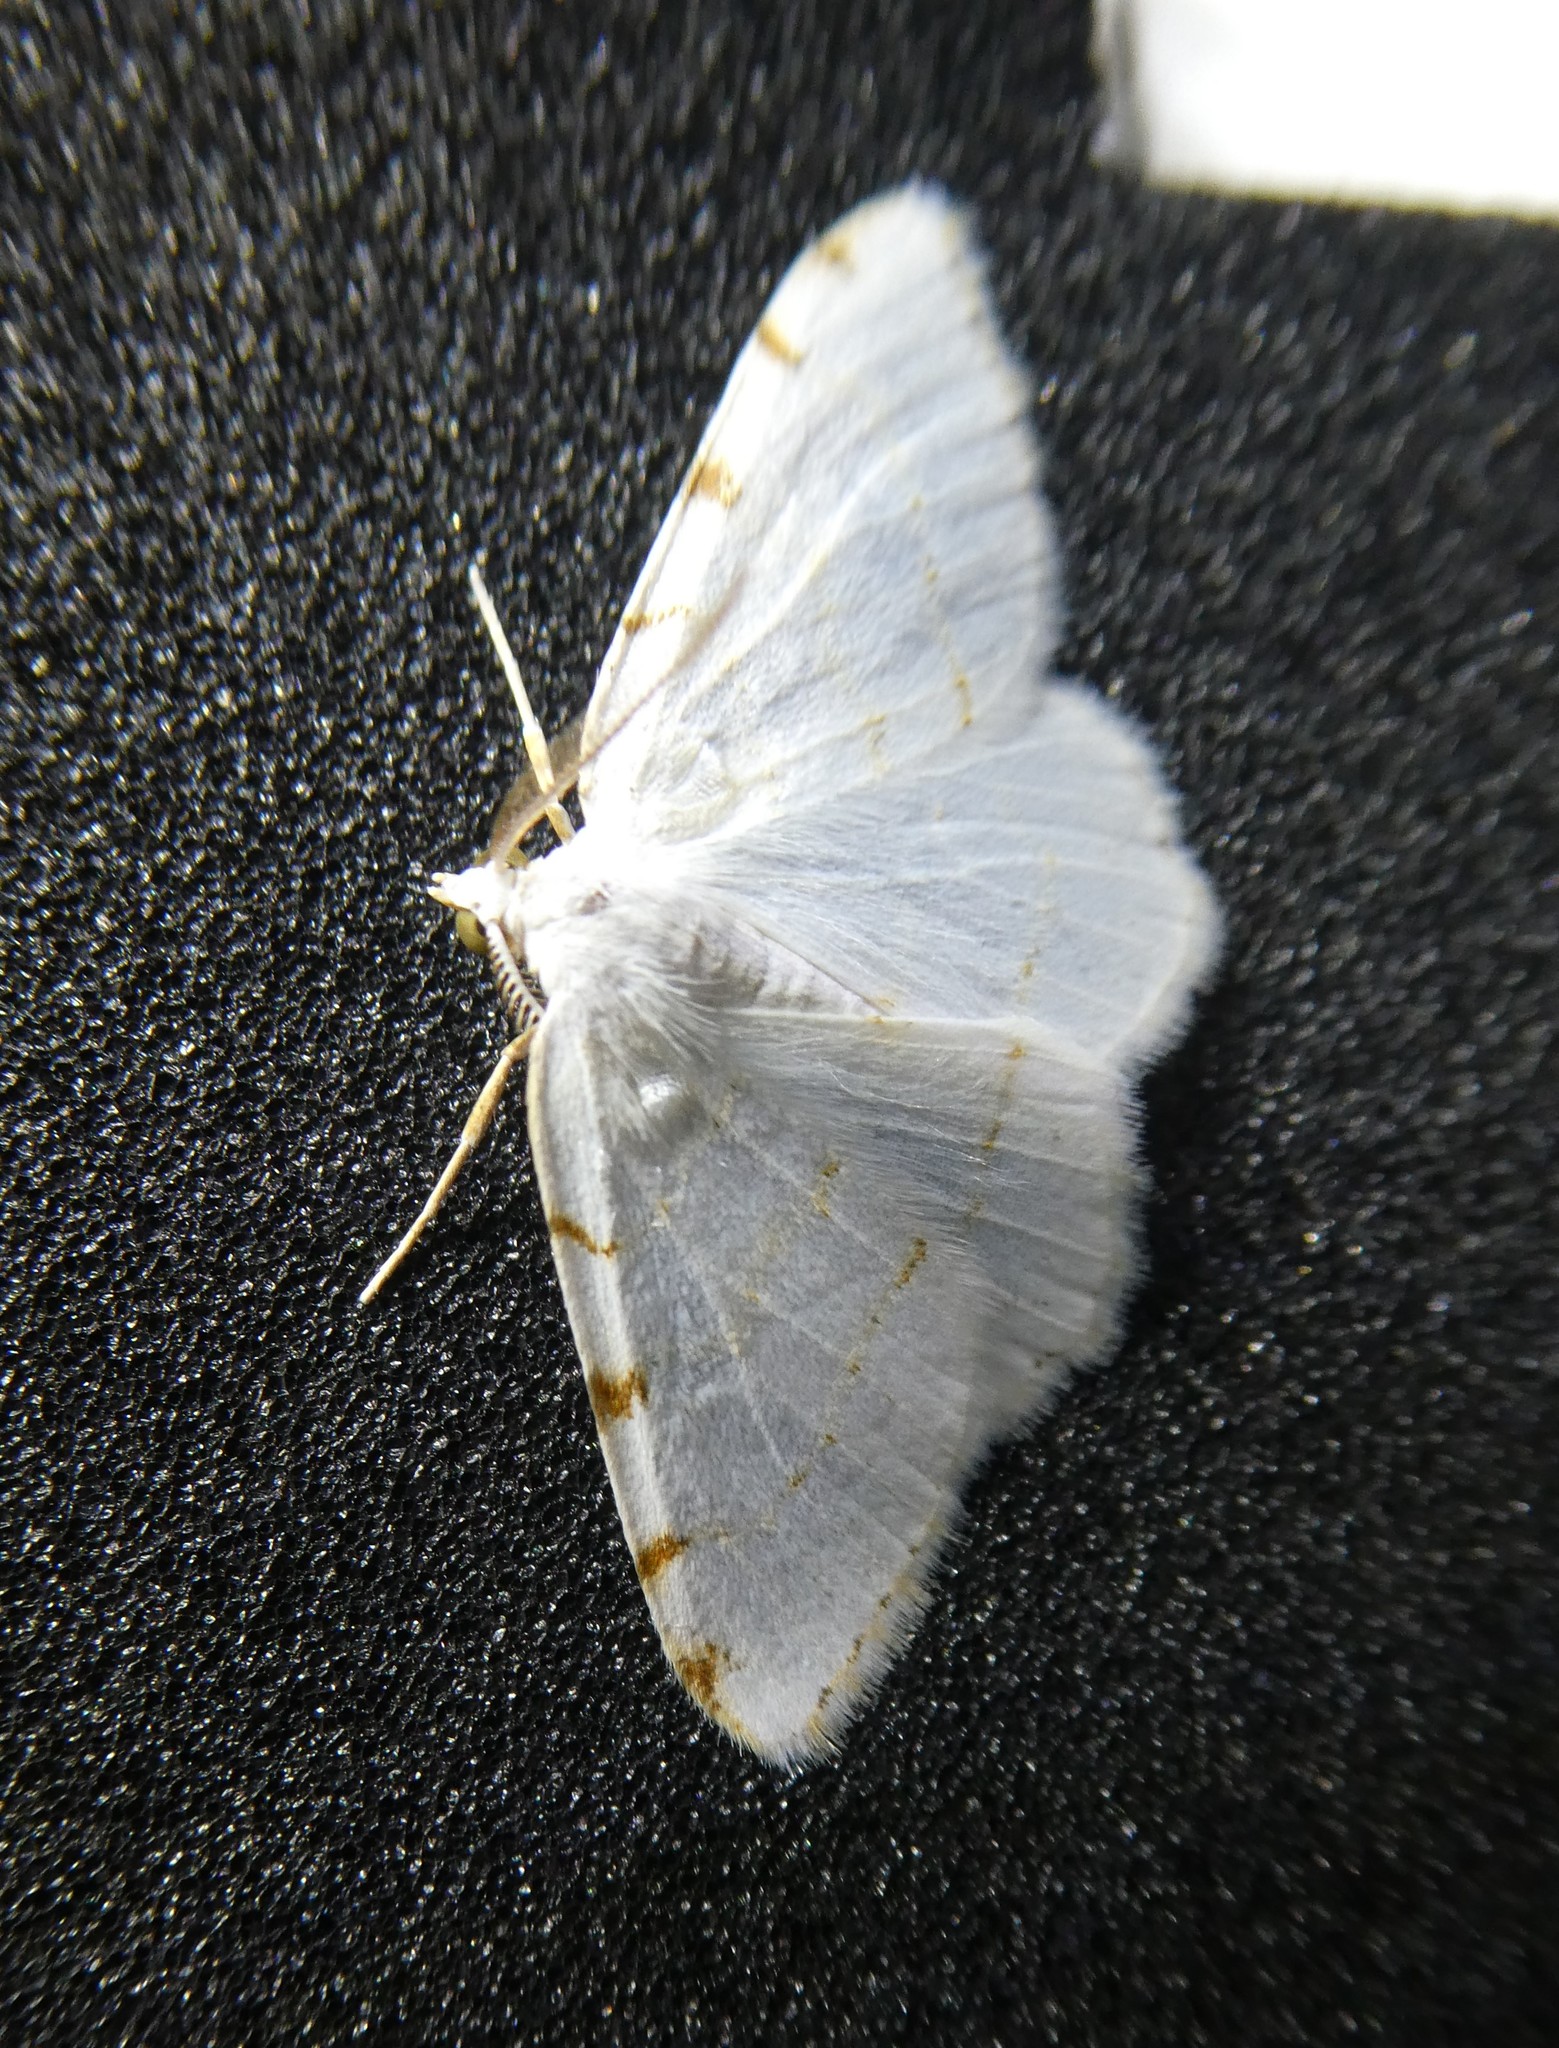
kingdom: Animalia
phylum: Arthropoda
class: Insecta
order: Lepidoptera
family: Geometridae
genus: Macaria
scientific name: Macaria pustularia
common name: Lesser maple spanworm moth
